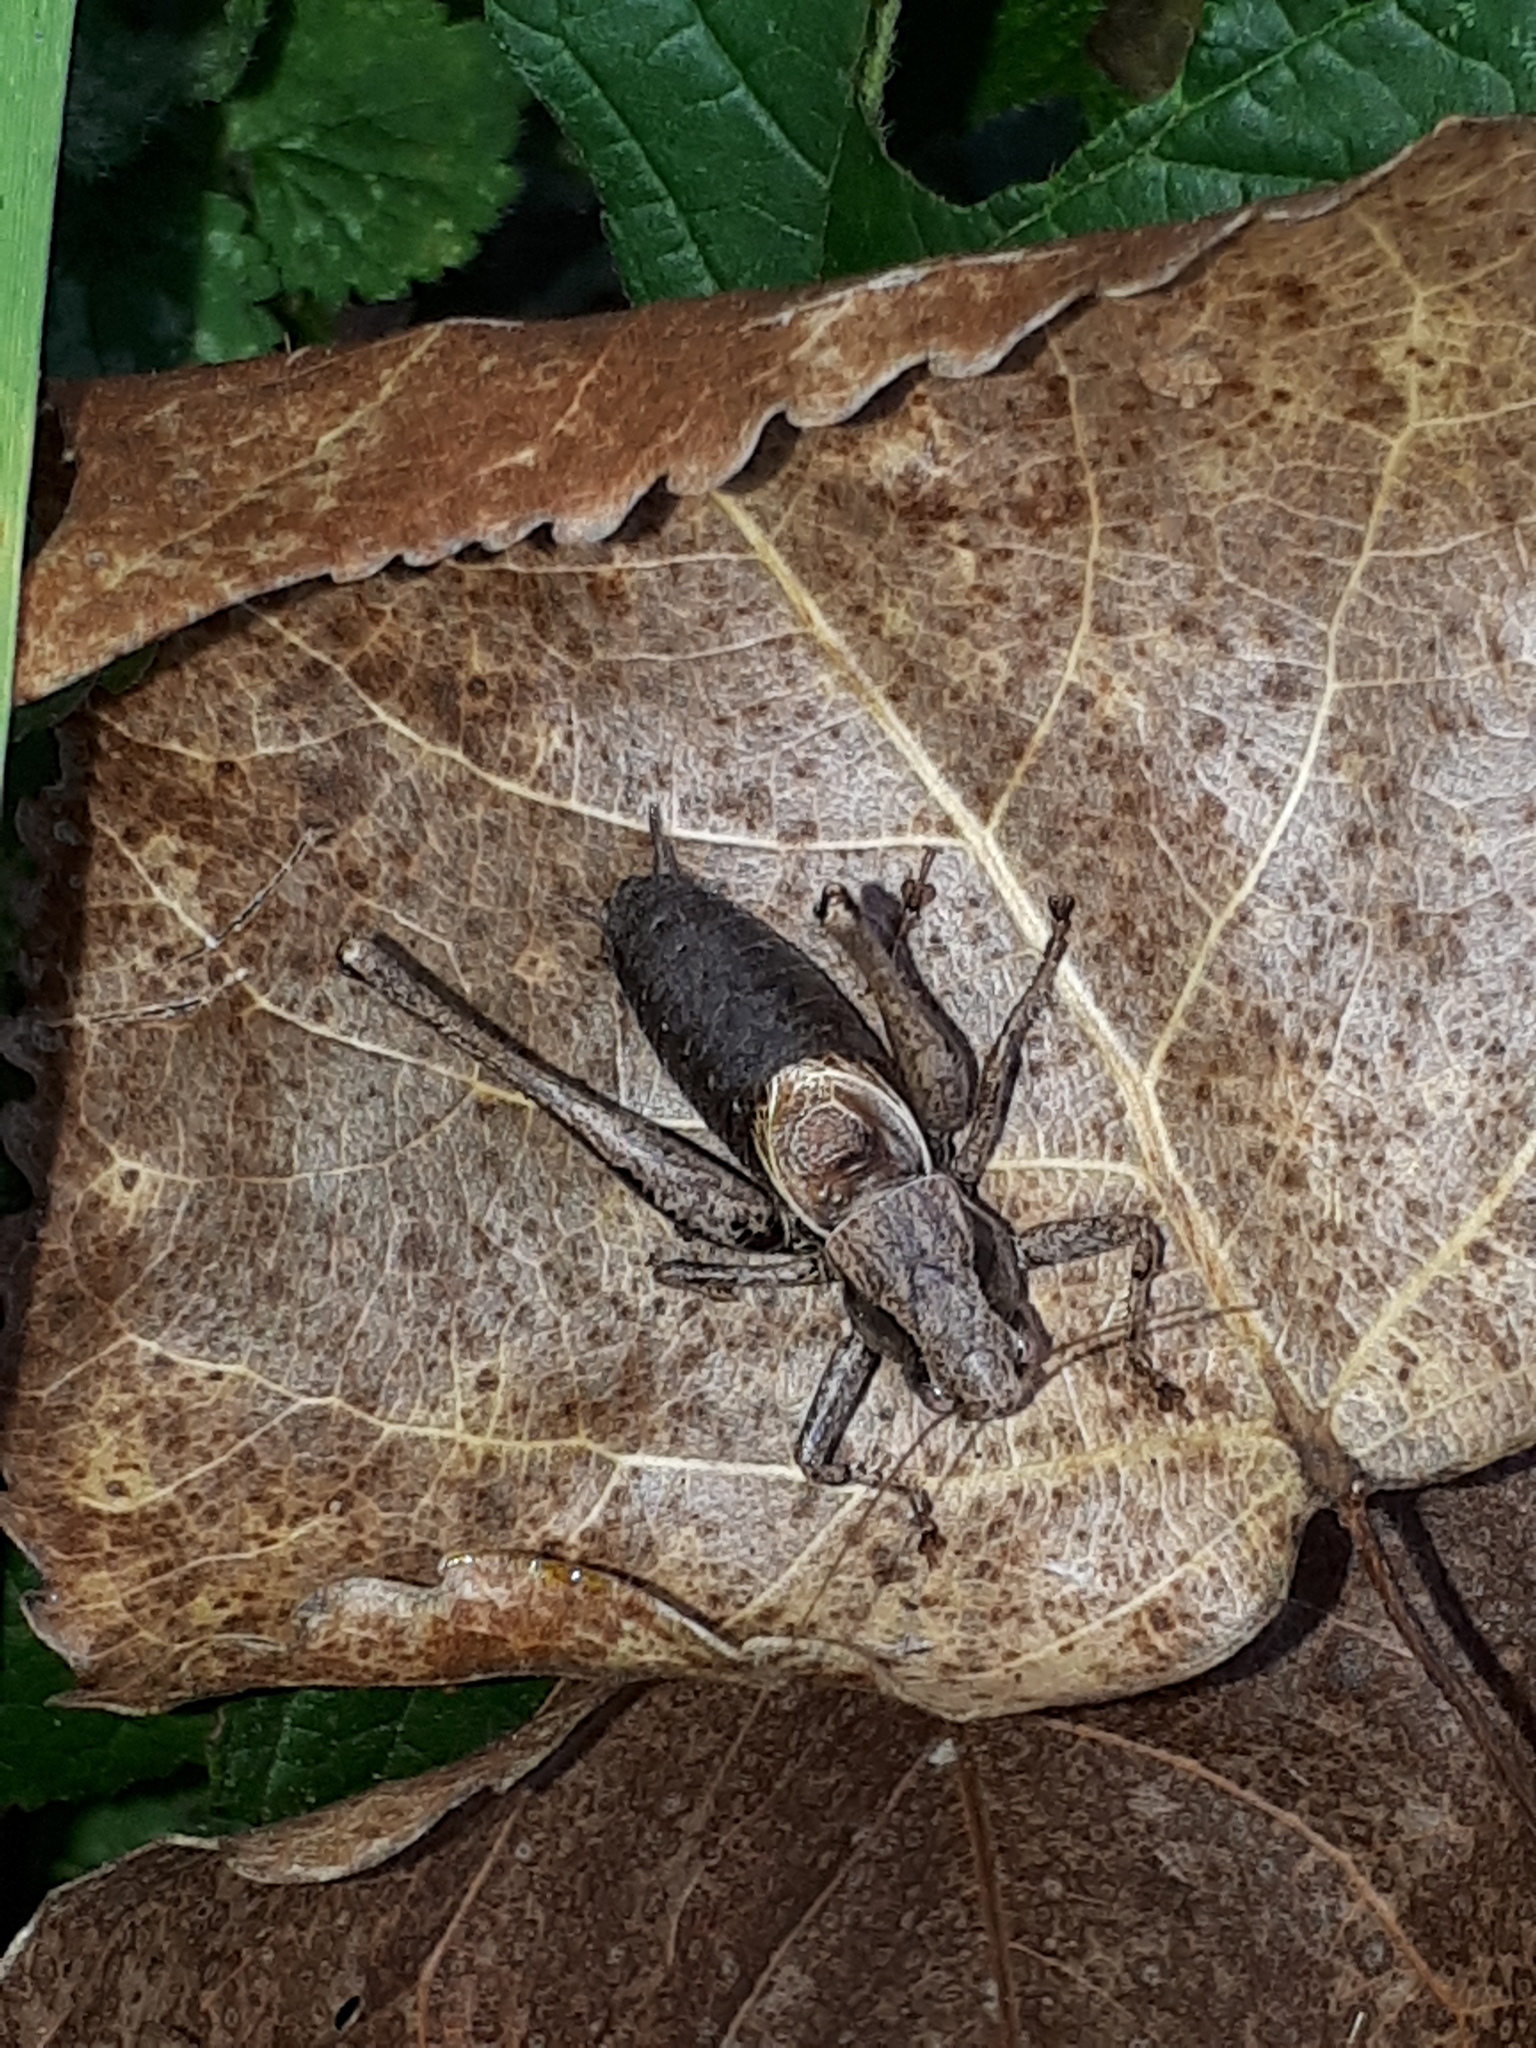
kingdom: Animalia
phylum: Arthropoda
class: Insecta
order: Orthoptera
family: Tettigoniidae
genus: Pholidoptera
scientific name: Pholidoptera griseoaptera
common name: Dark bush-cricket
